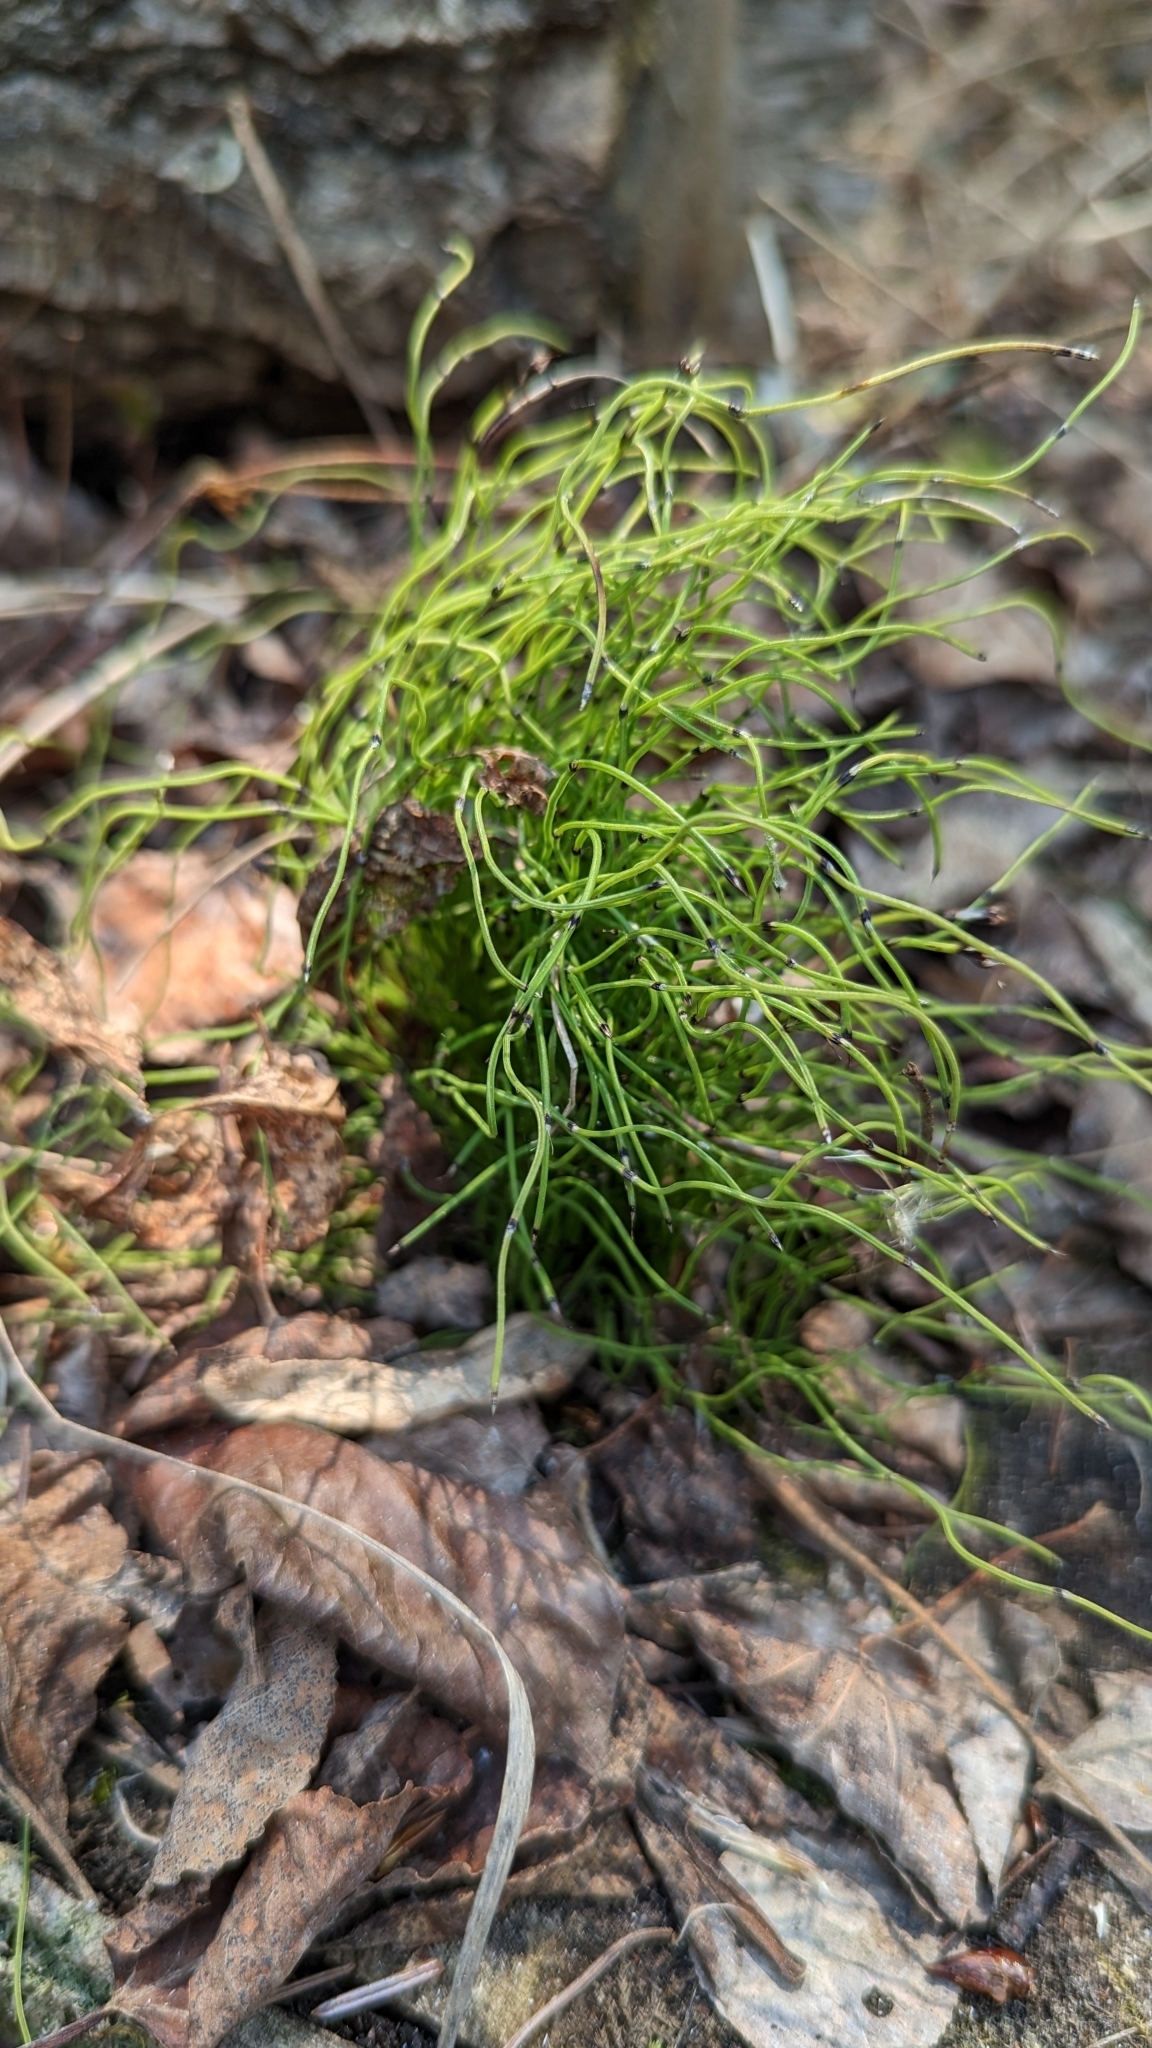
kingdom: Plantae
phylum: Tracheophyta
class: Polypodiopsida
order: Equisetales
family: Equisetaceae
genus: Equisetum
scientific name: Equisetum scirpoides
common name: Delicate horsetail
